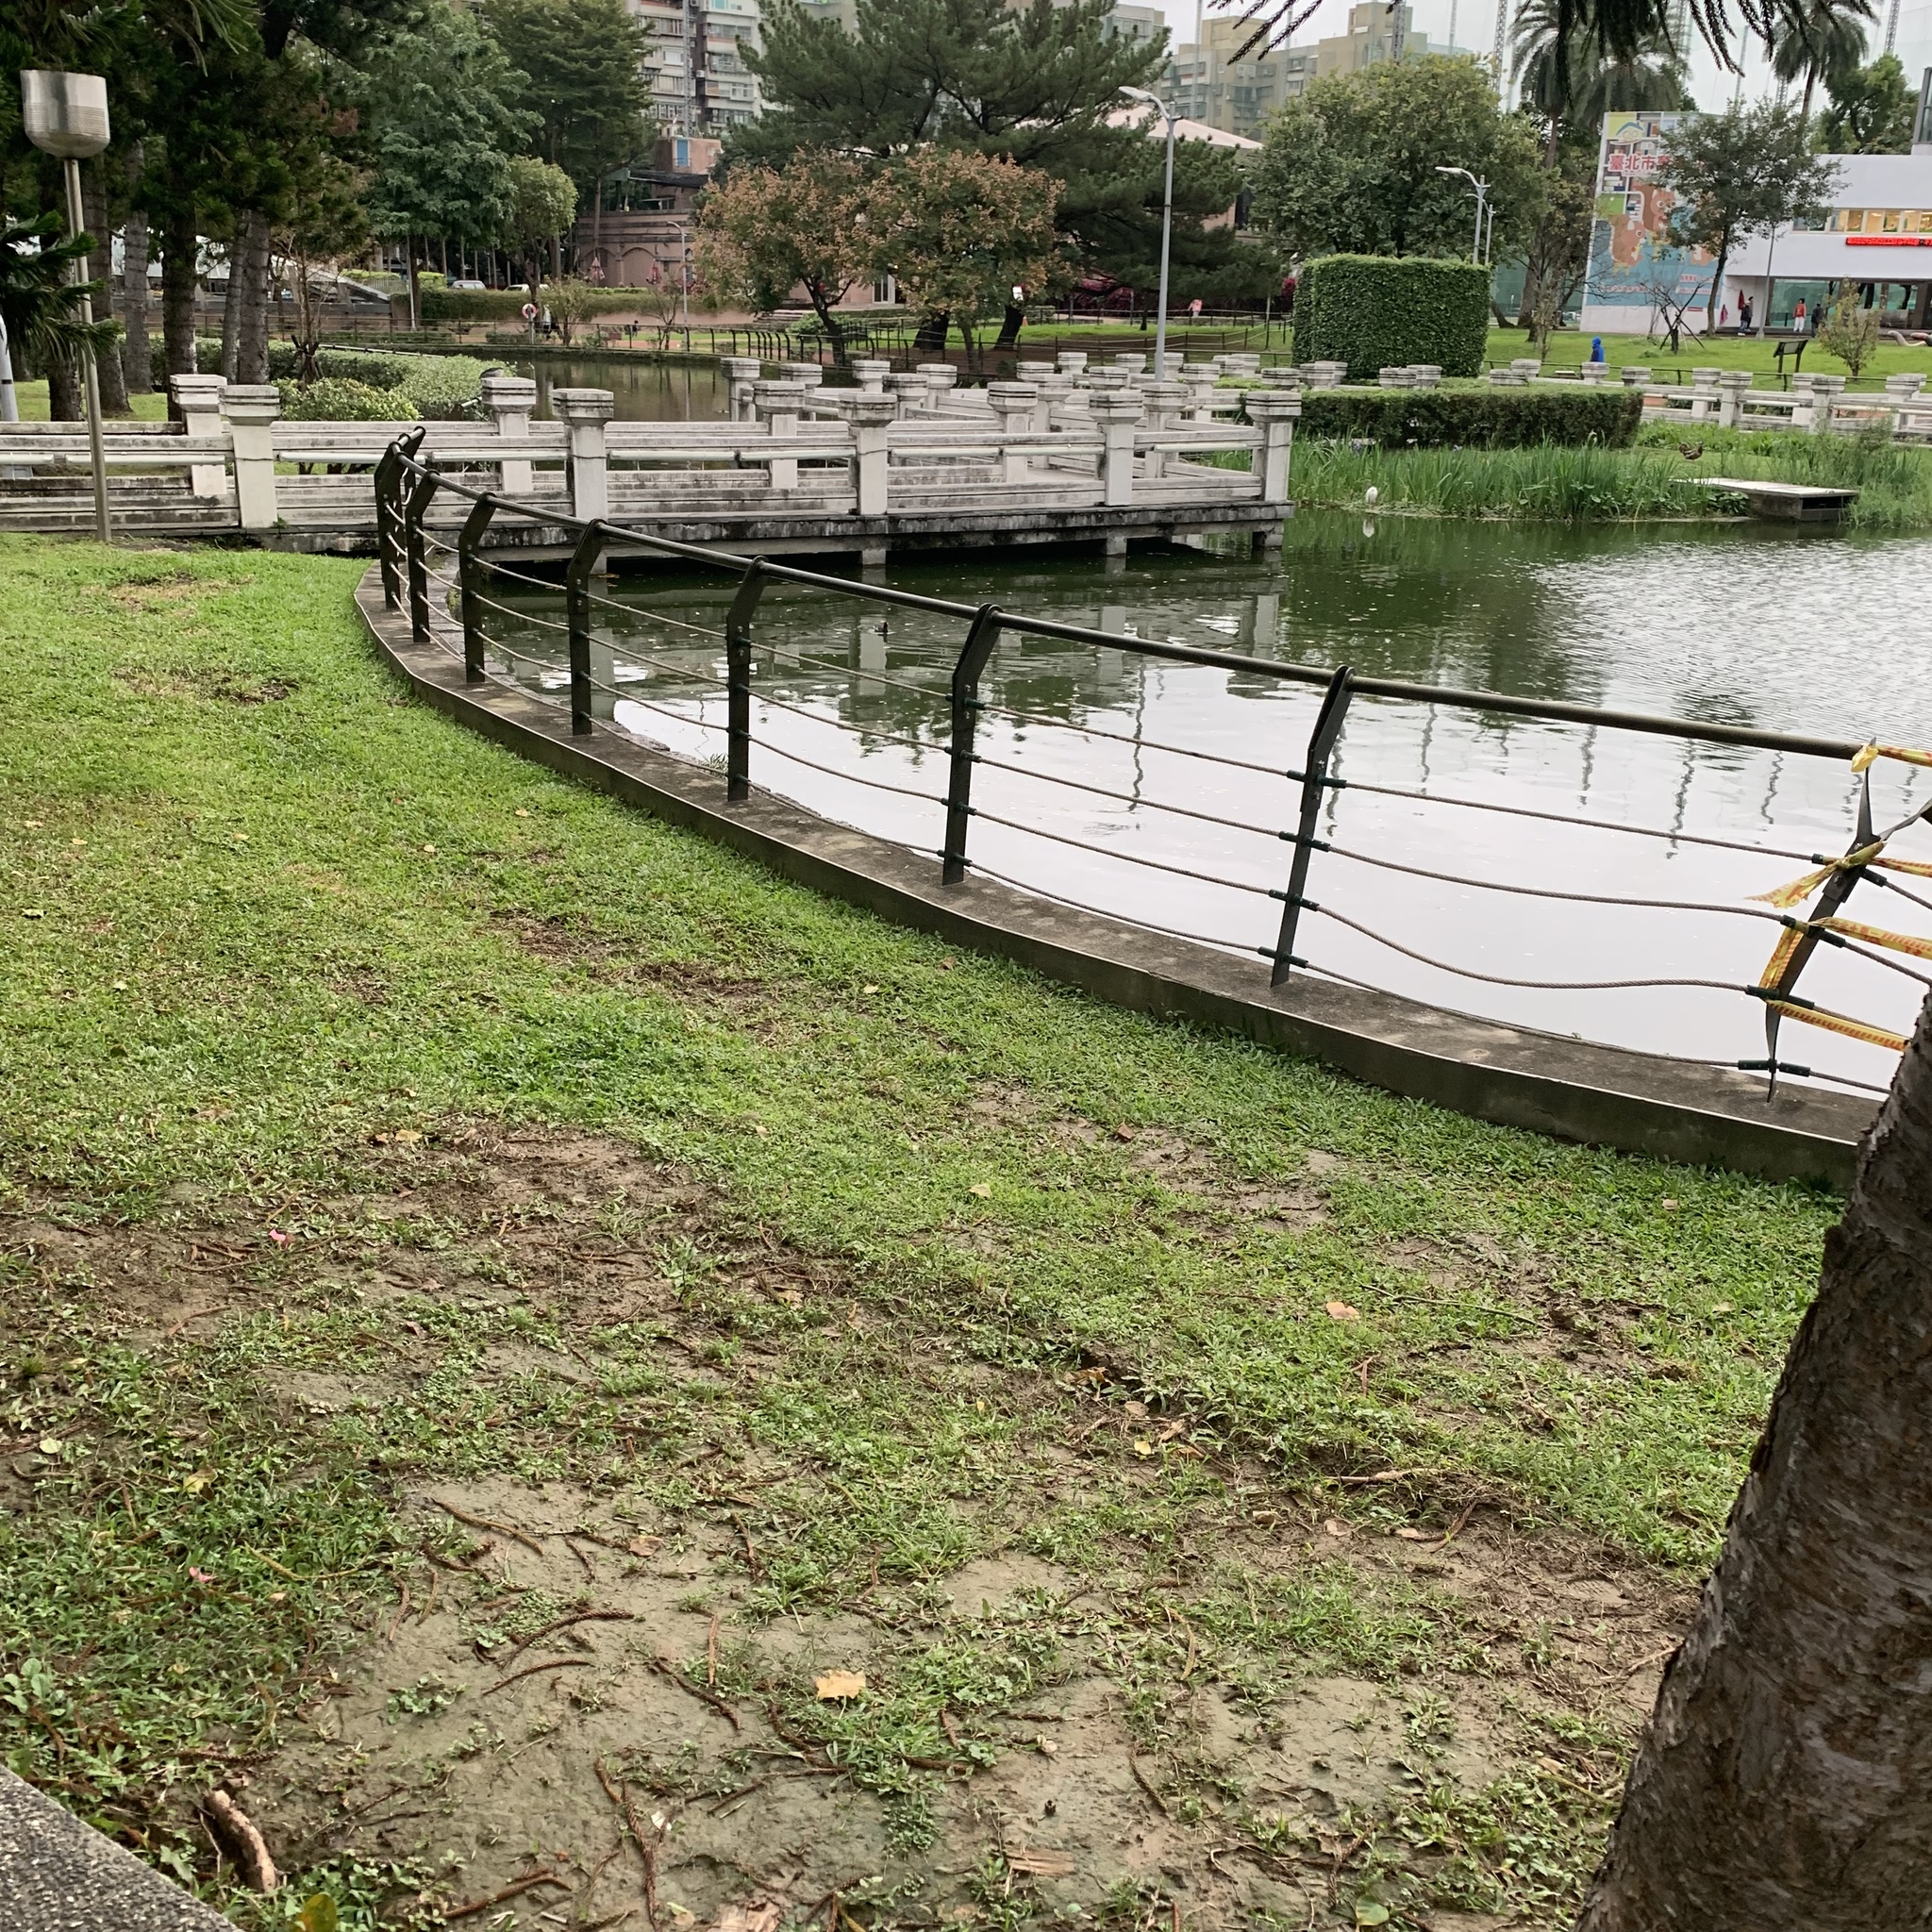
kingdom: Animalia
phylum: Chordata
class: Aves
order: Gruiformes
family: Rallidae
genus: Gallinula
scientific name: Gallinula chloropus
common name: Common moorhen
